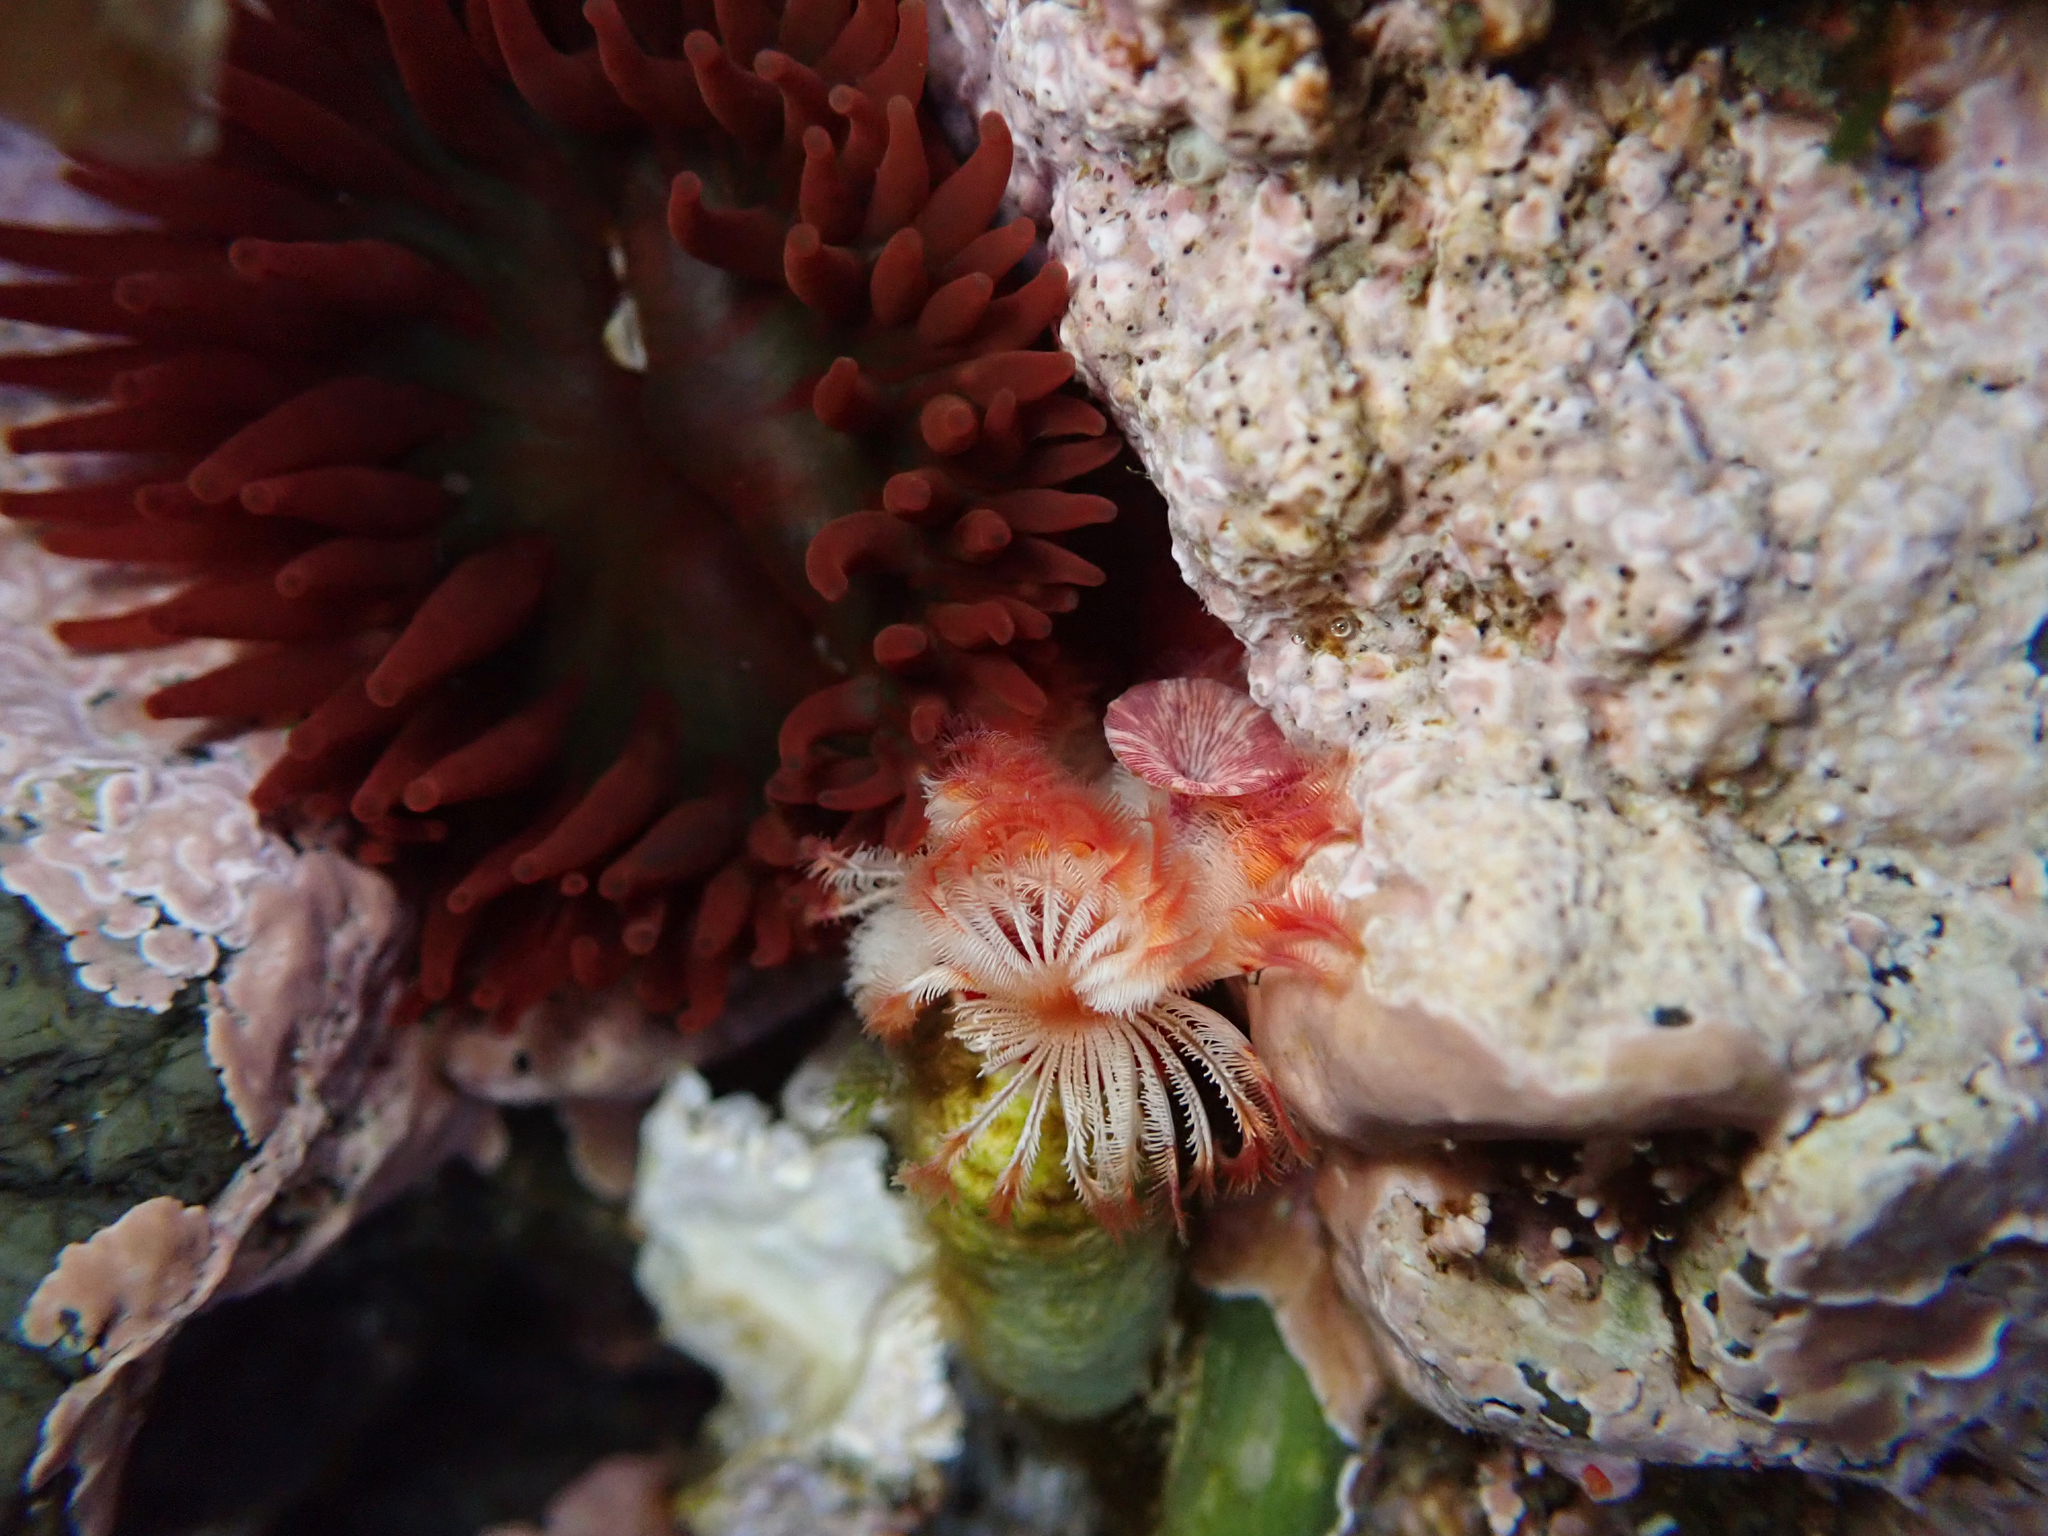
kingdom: Animalia
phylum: Annelida
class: Polychaeta
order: Sabellida
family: Serpulidae
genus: Serpula
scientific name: Serpula columbiana
